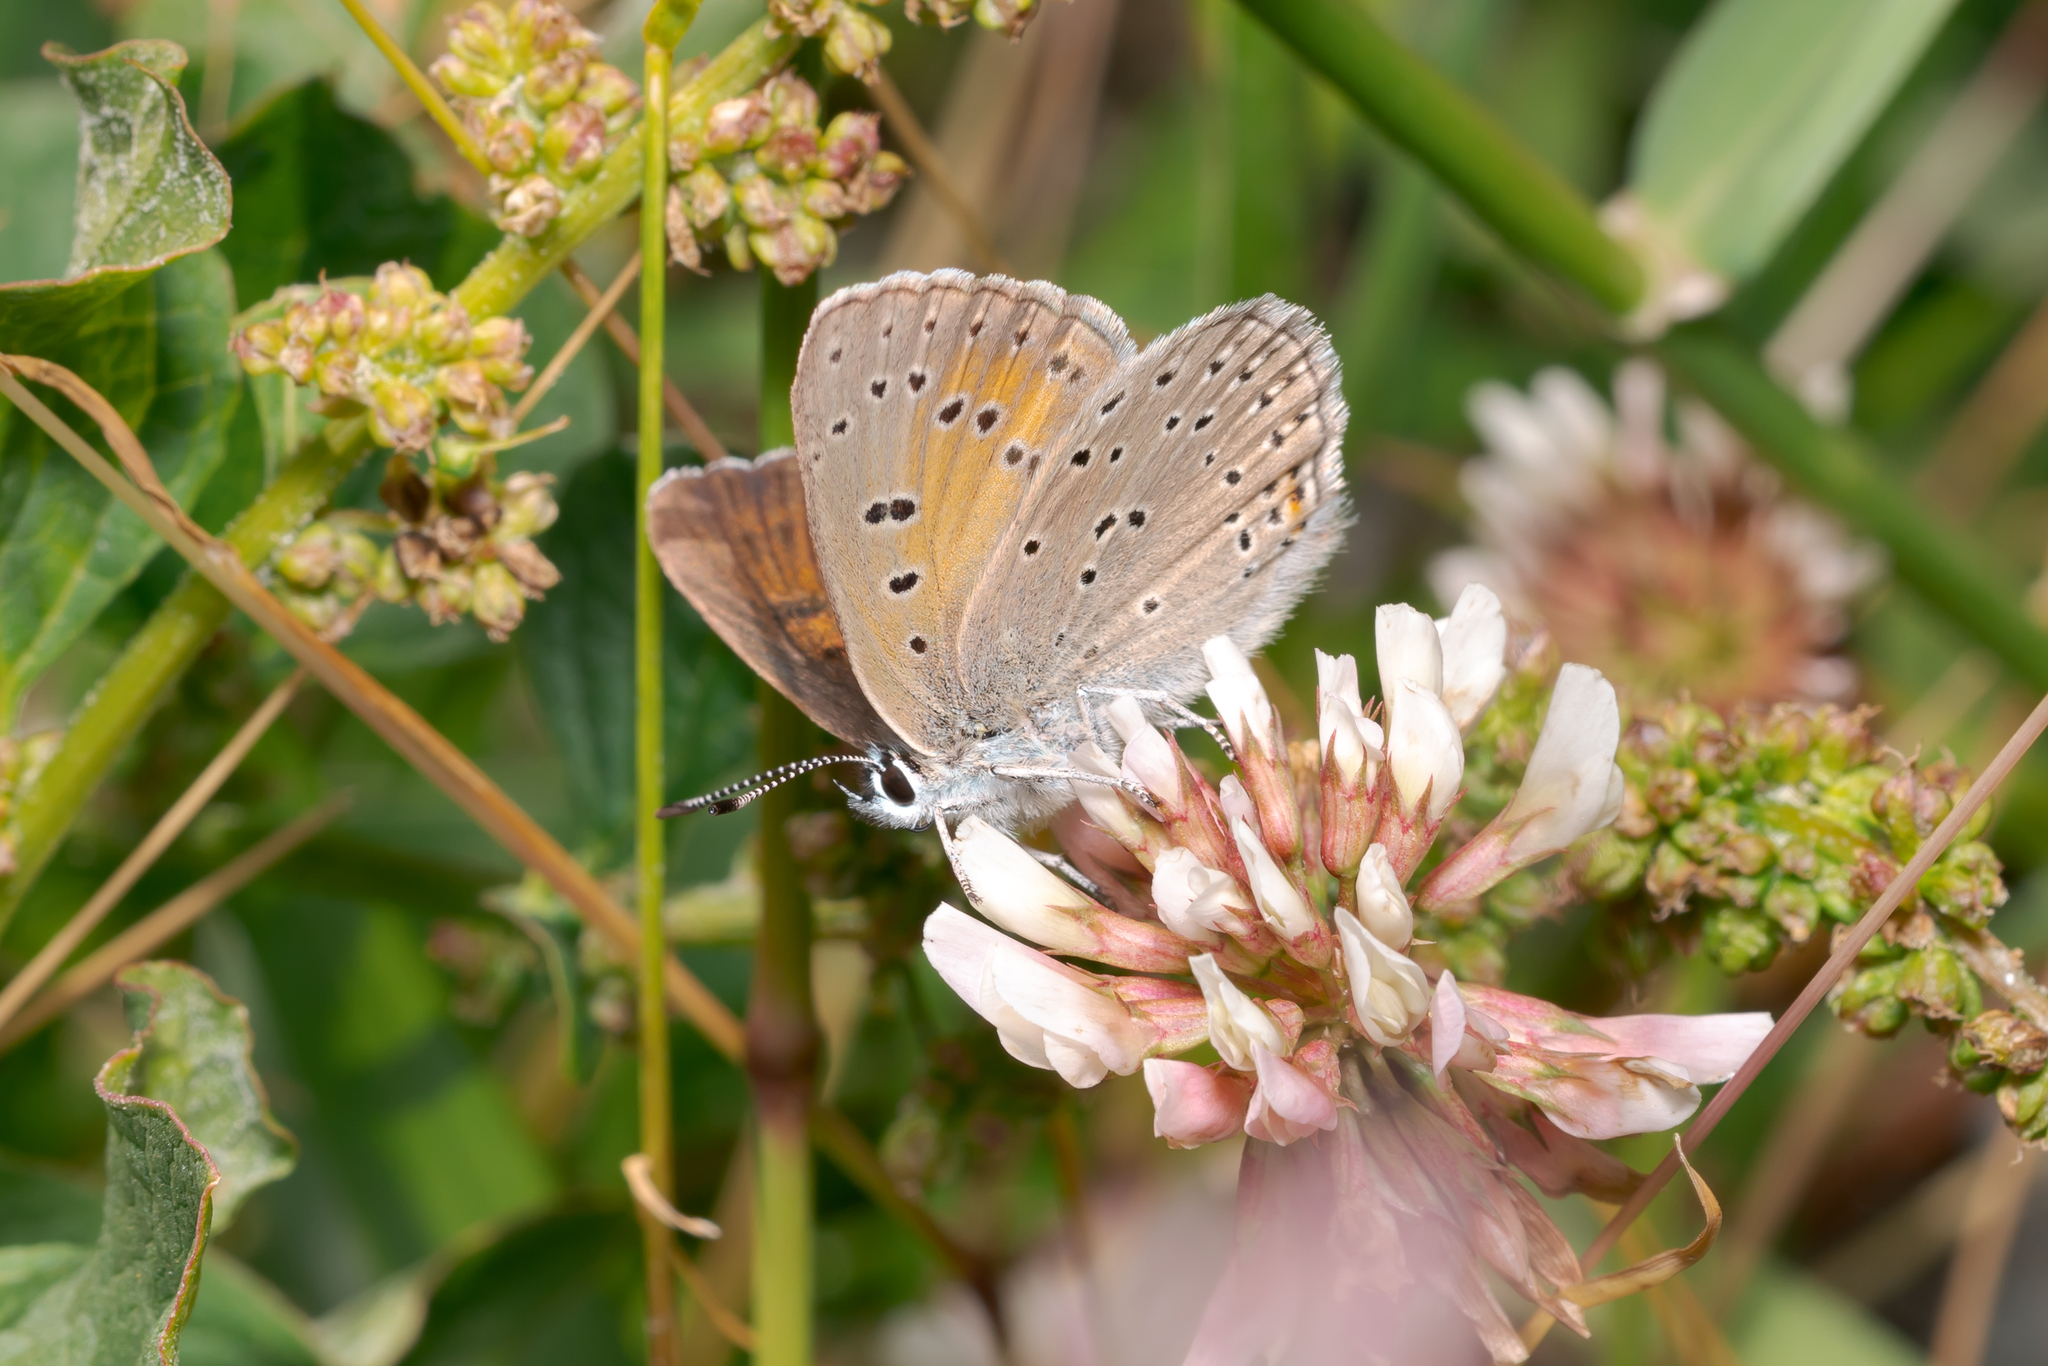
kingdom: Animalia
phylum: Arthropoda
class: Insecta
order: Lepidoptera
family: Lycaenidae
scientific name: Lycaenidae
